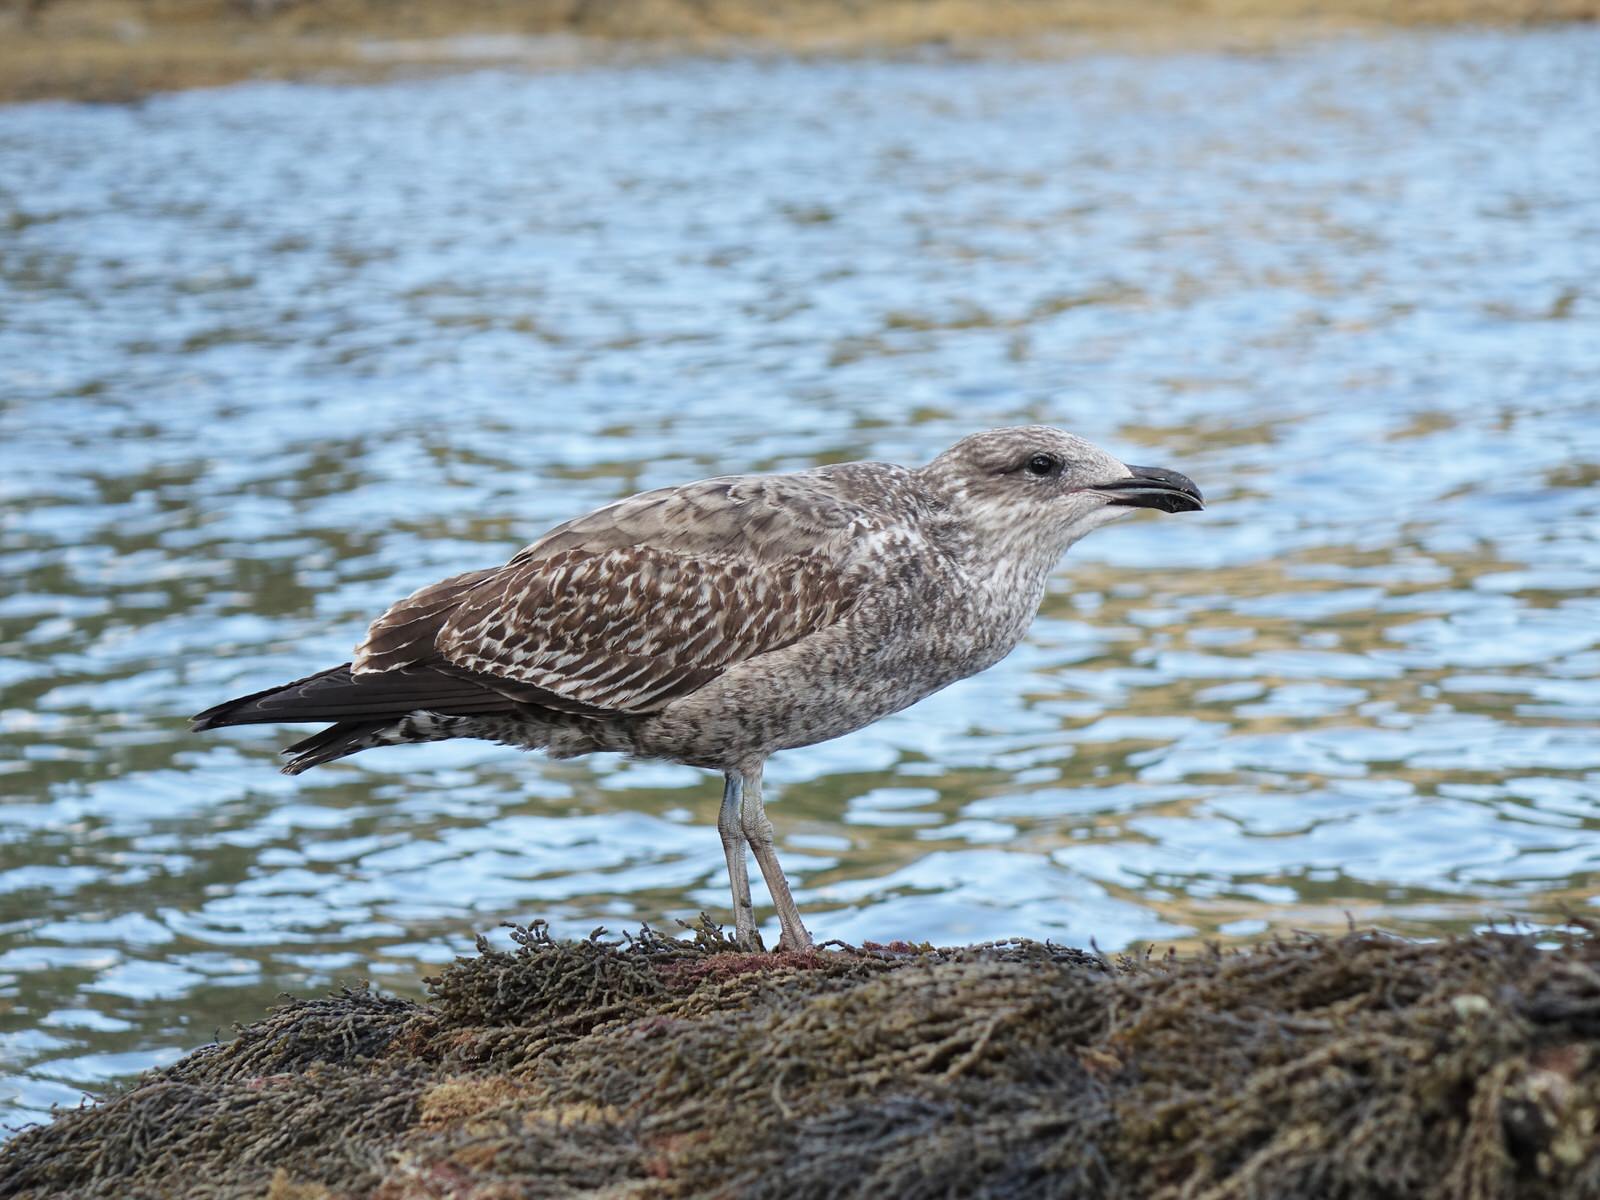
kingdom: Animalia
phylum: Chordata
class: Aves
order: Charadriiformes
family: Laridae
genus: Larus
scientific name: Larus dominicanus
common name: Kelp gull
